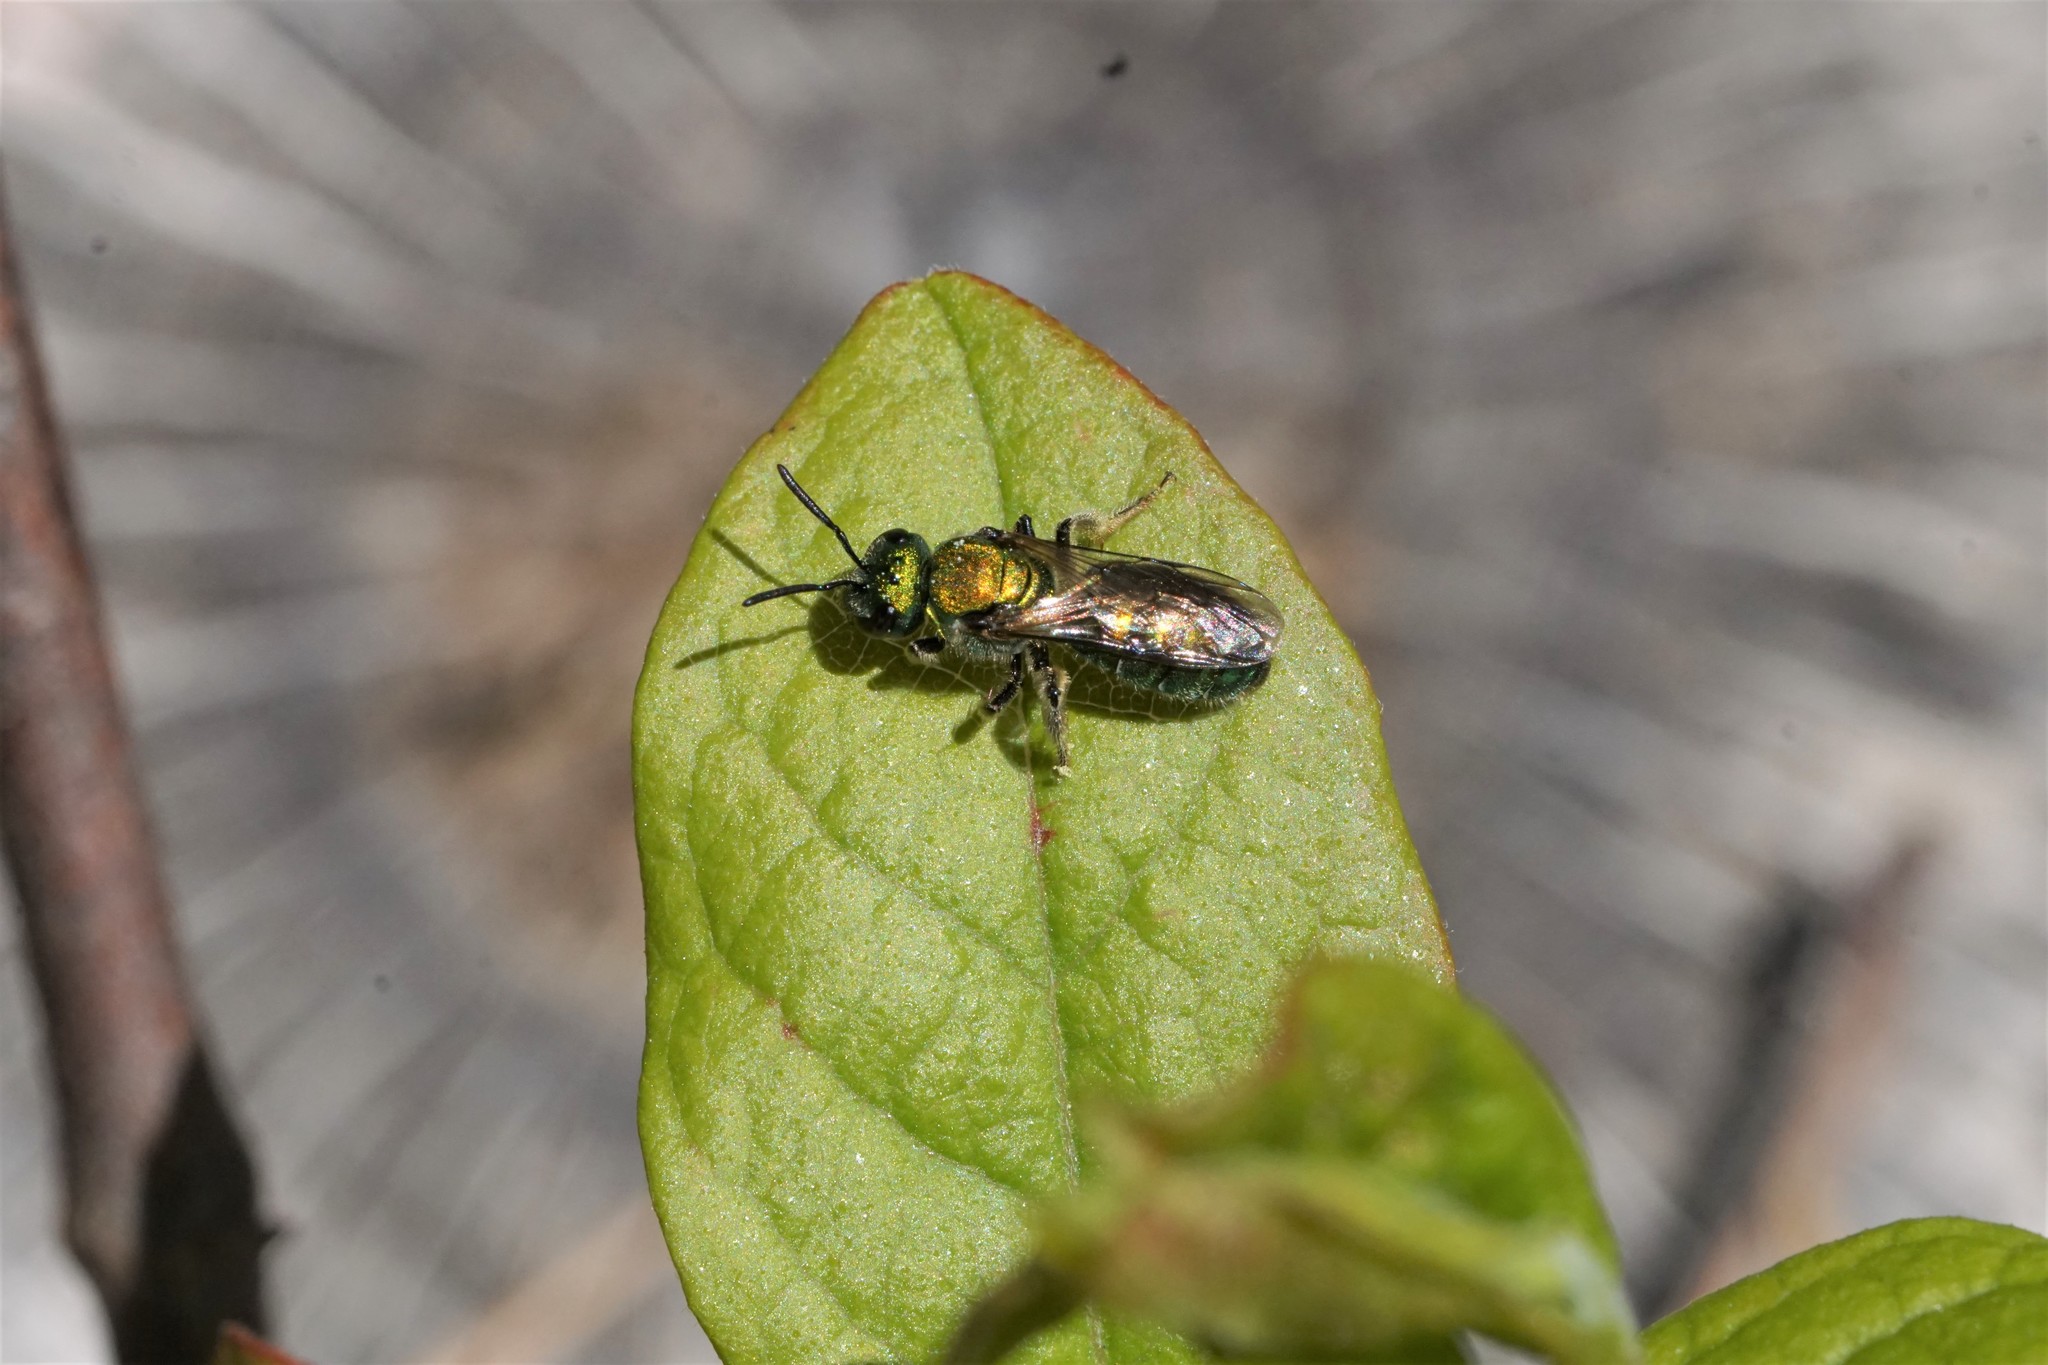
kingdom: Animalia
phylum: Arthropoda
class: Insecta
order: Hymenoptera
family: Halictidae
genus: Augochlora
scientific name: Augochlora pura
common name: Pure green sweat bee
